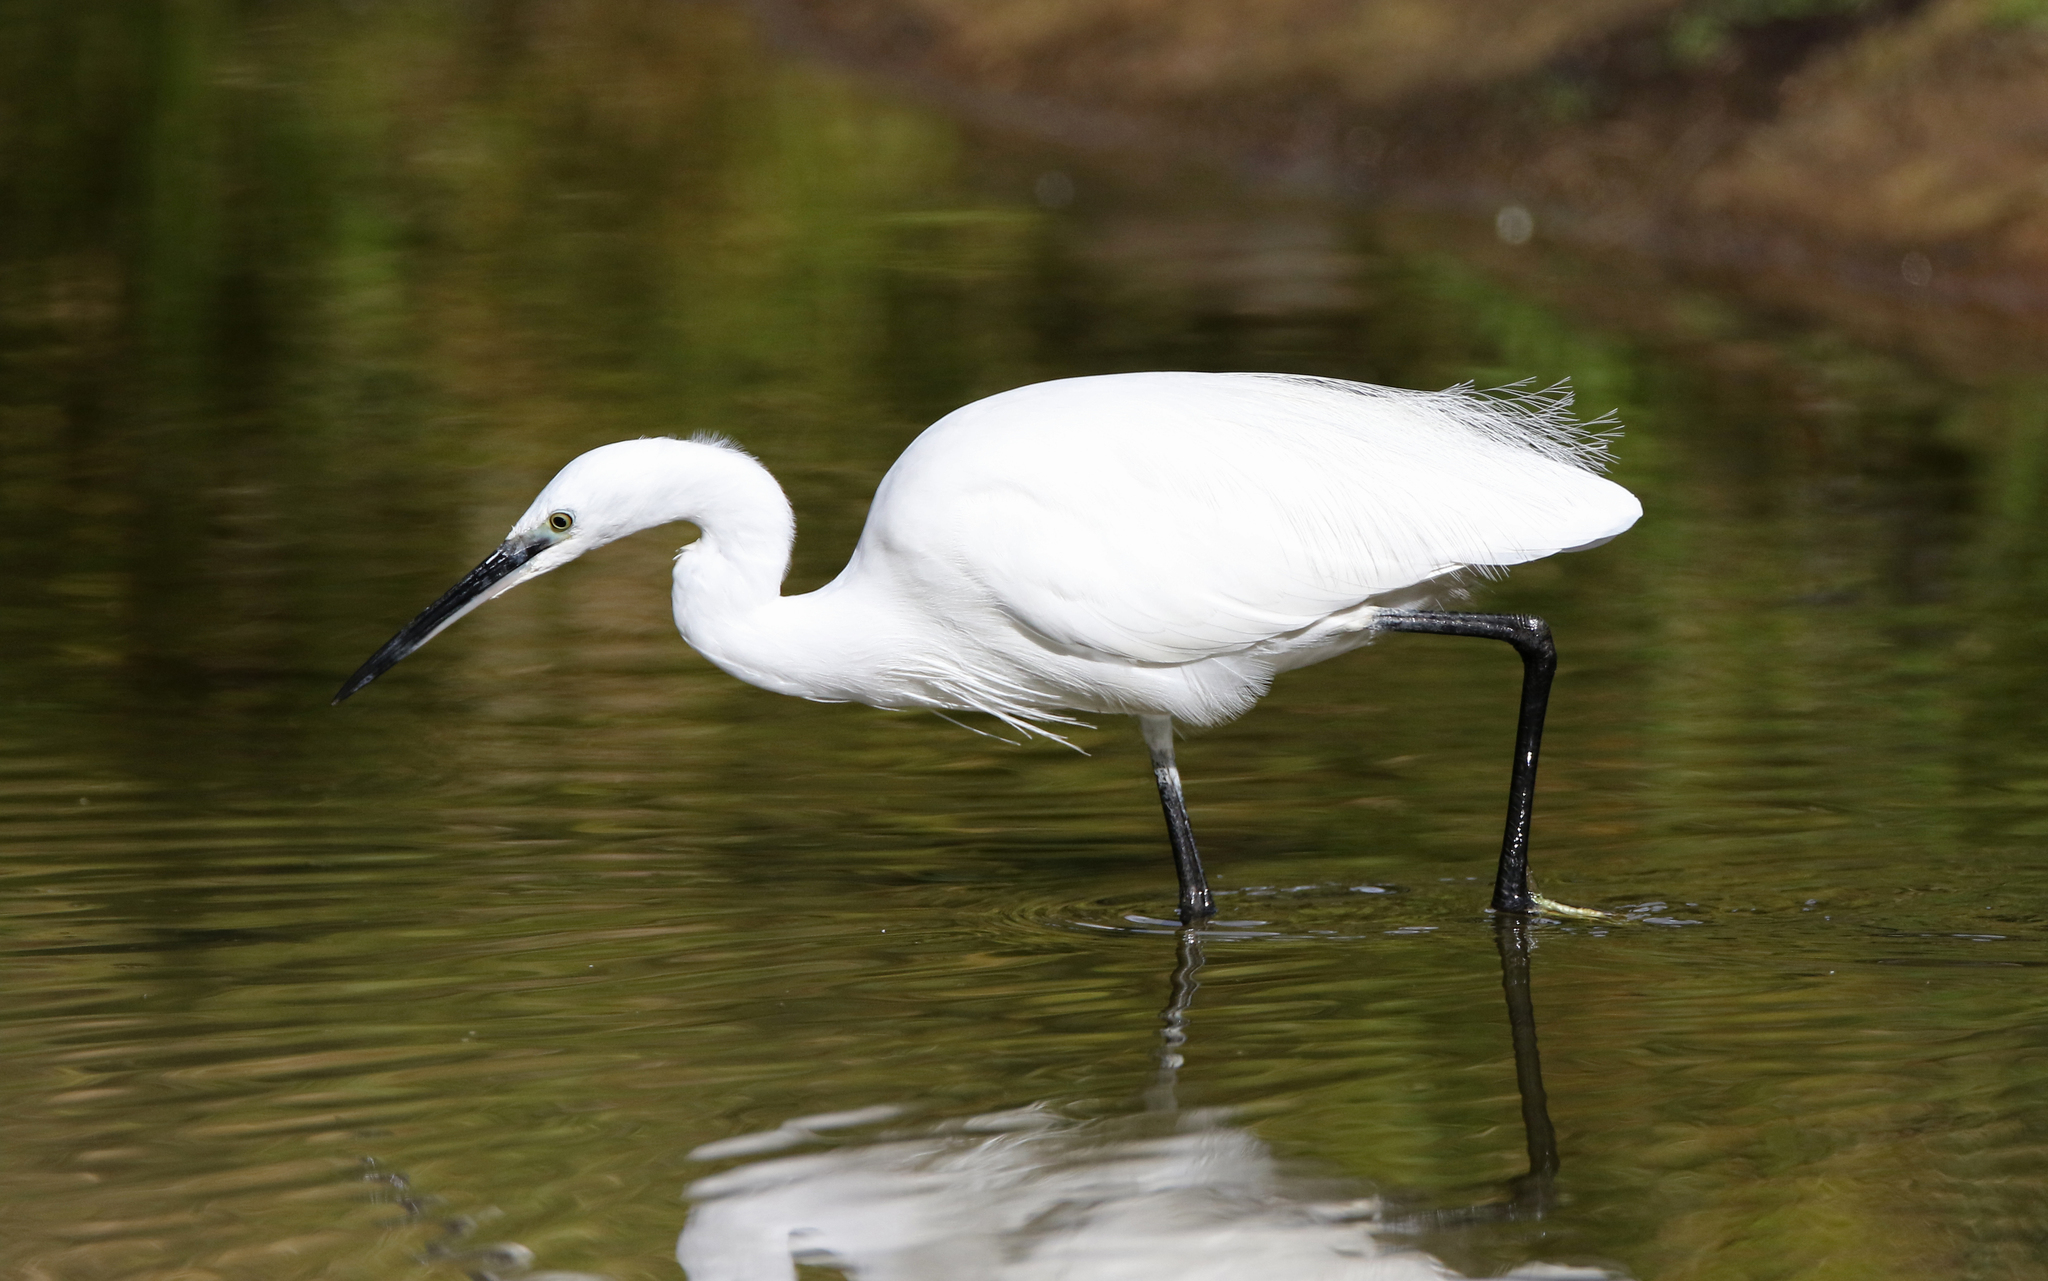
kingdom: Animalia
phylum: Chordata
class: Aves
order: Pelecaniformes
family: Ardeidae
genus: Egretta
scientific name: Egretta garzetta
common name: Little egret
